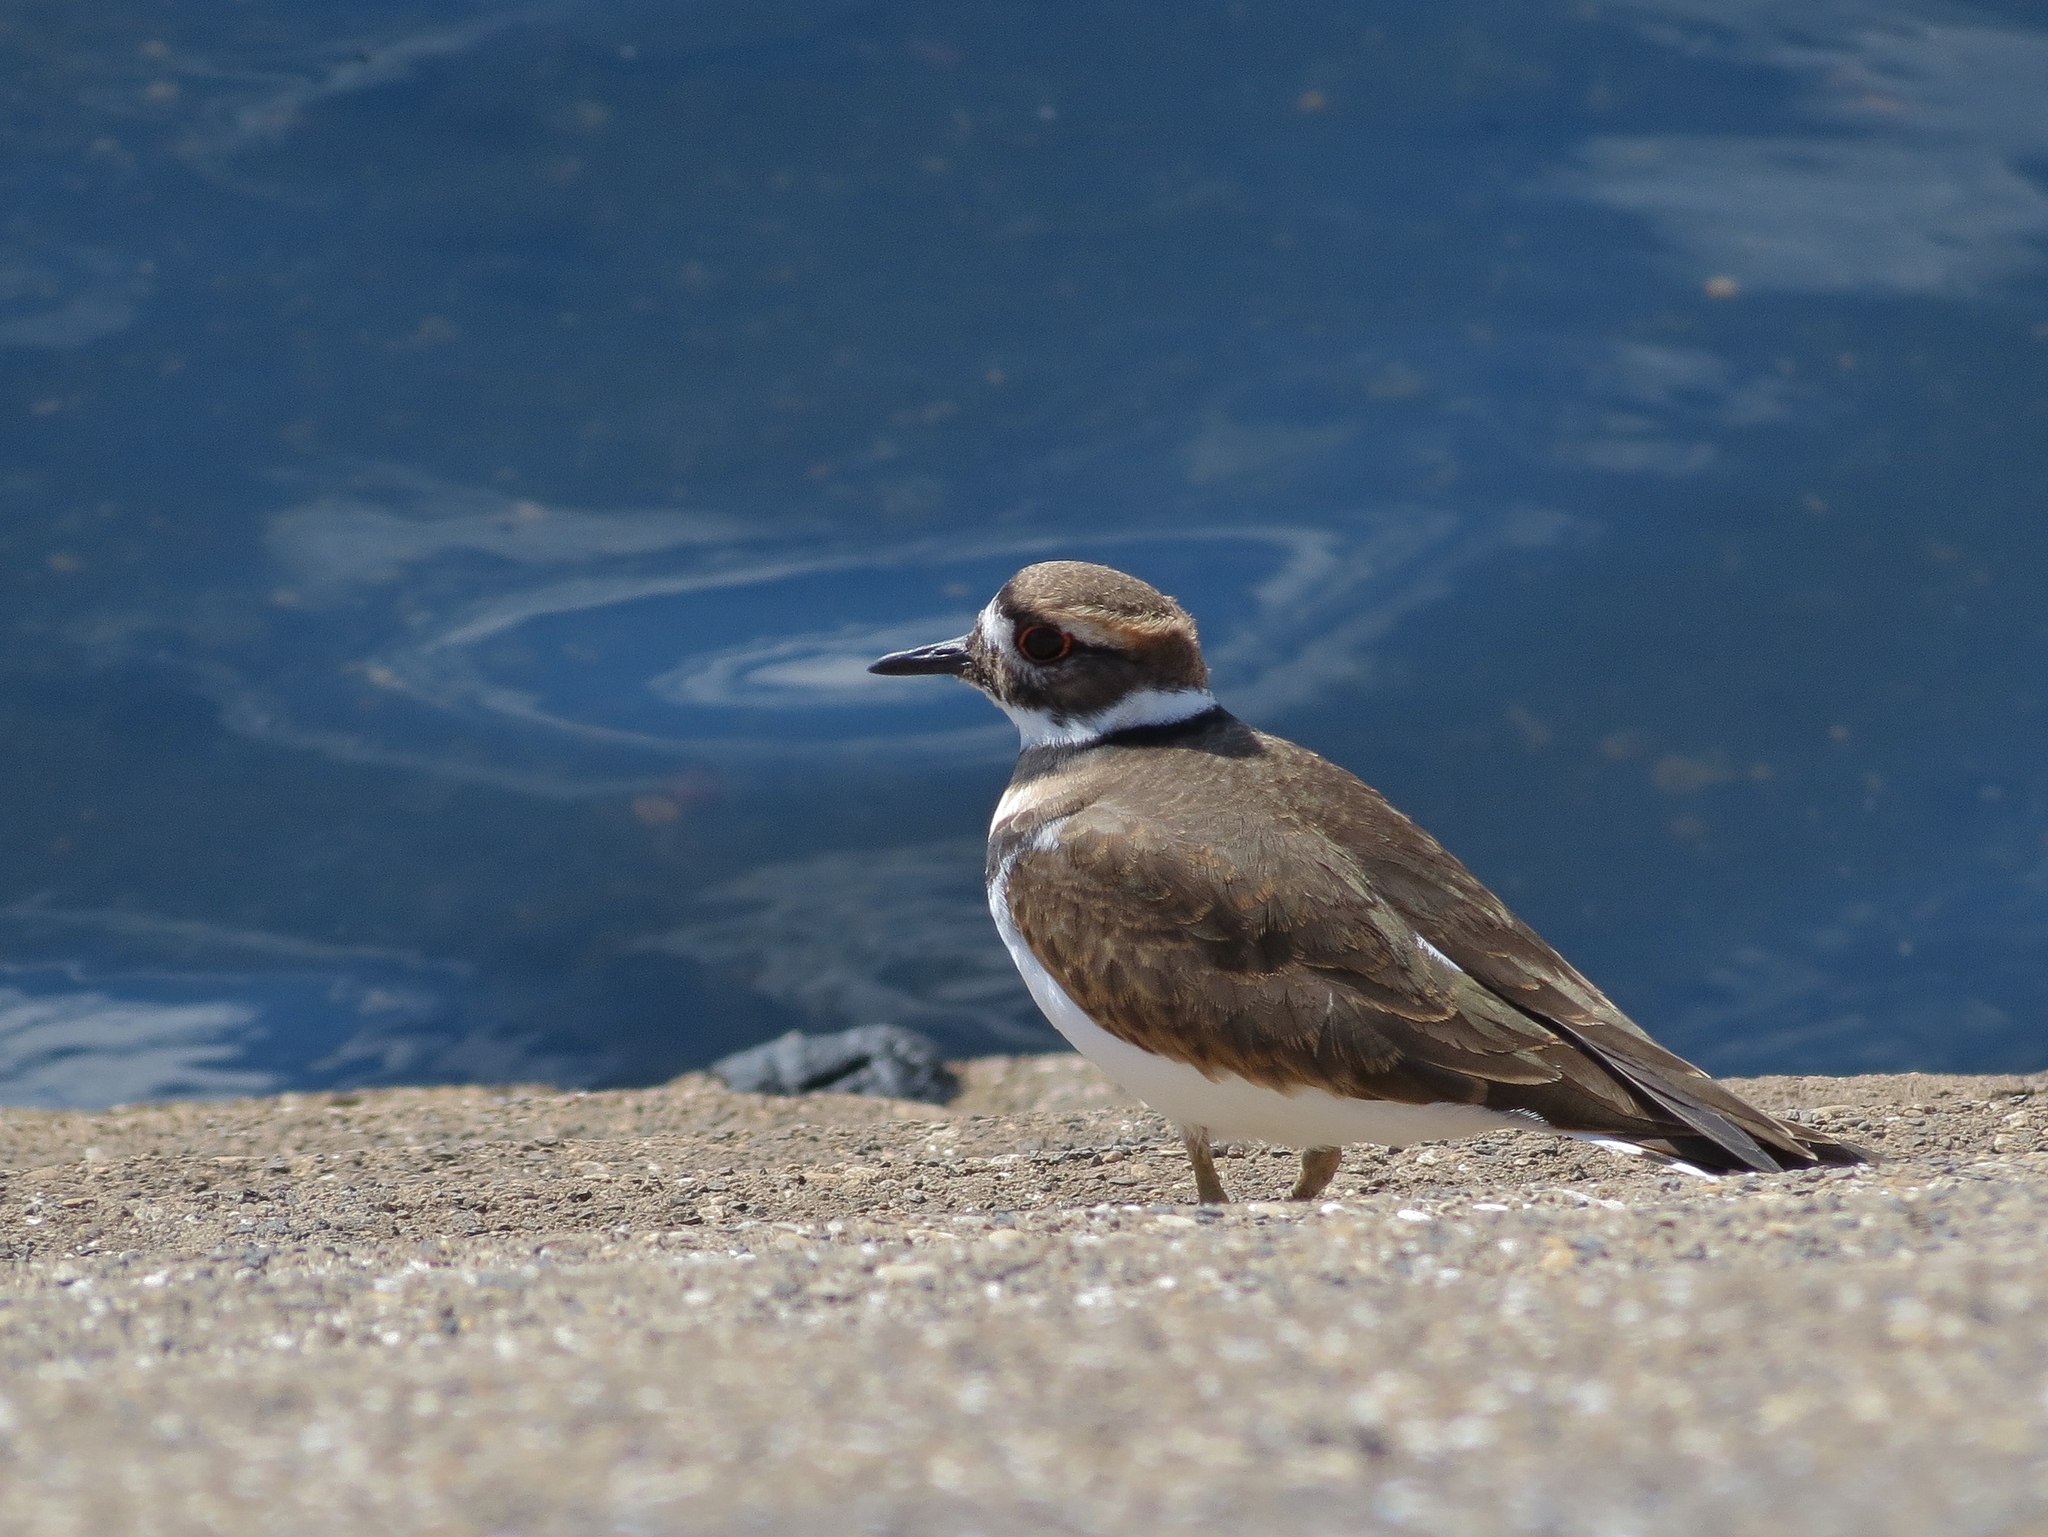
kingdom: Animalia
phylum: Chordata
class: Aves
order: Charadriiformes
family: Charadriidae
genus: Charadrius
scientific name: Charadrius vociferus
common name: Killdeer
